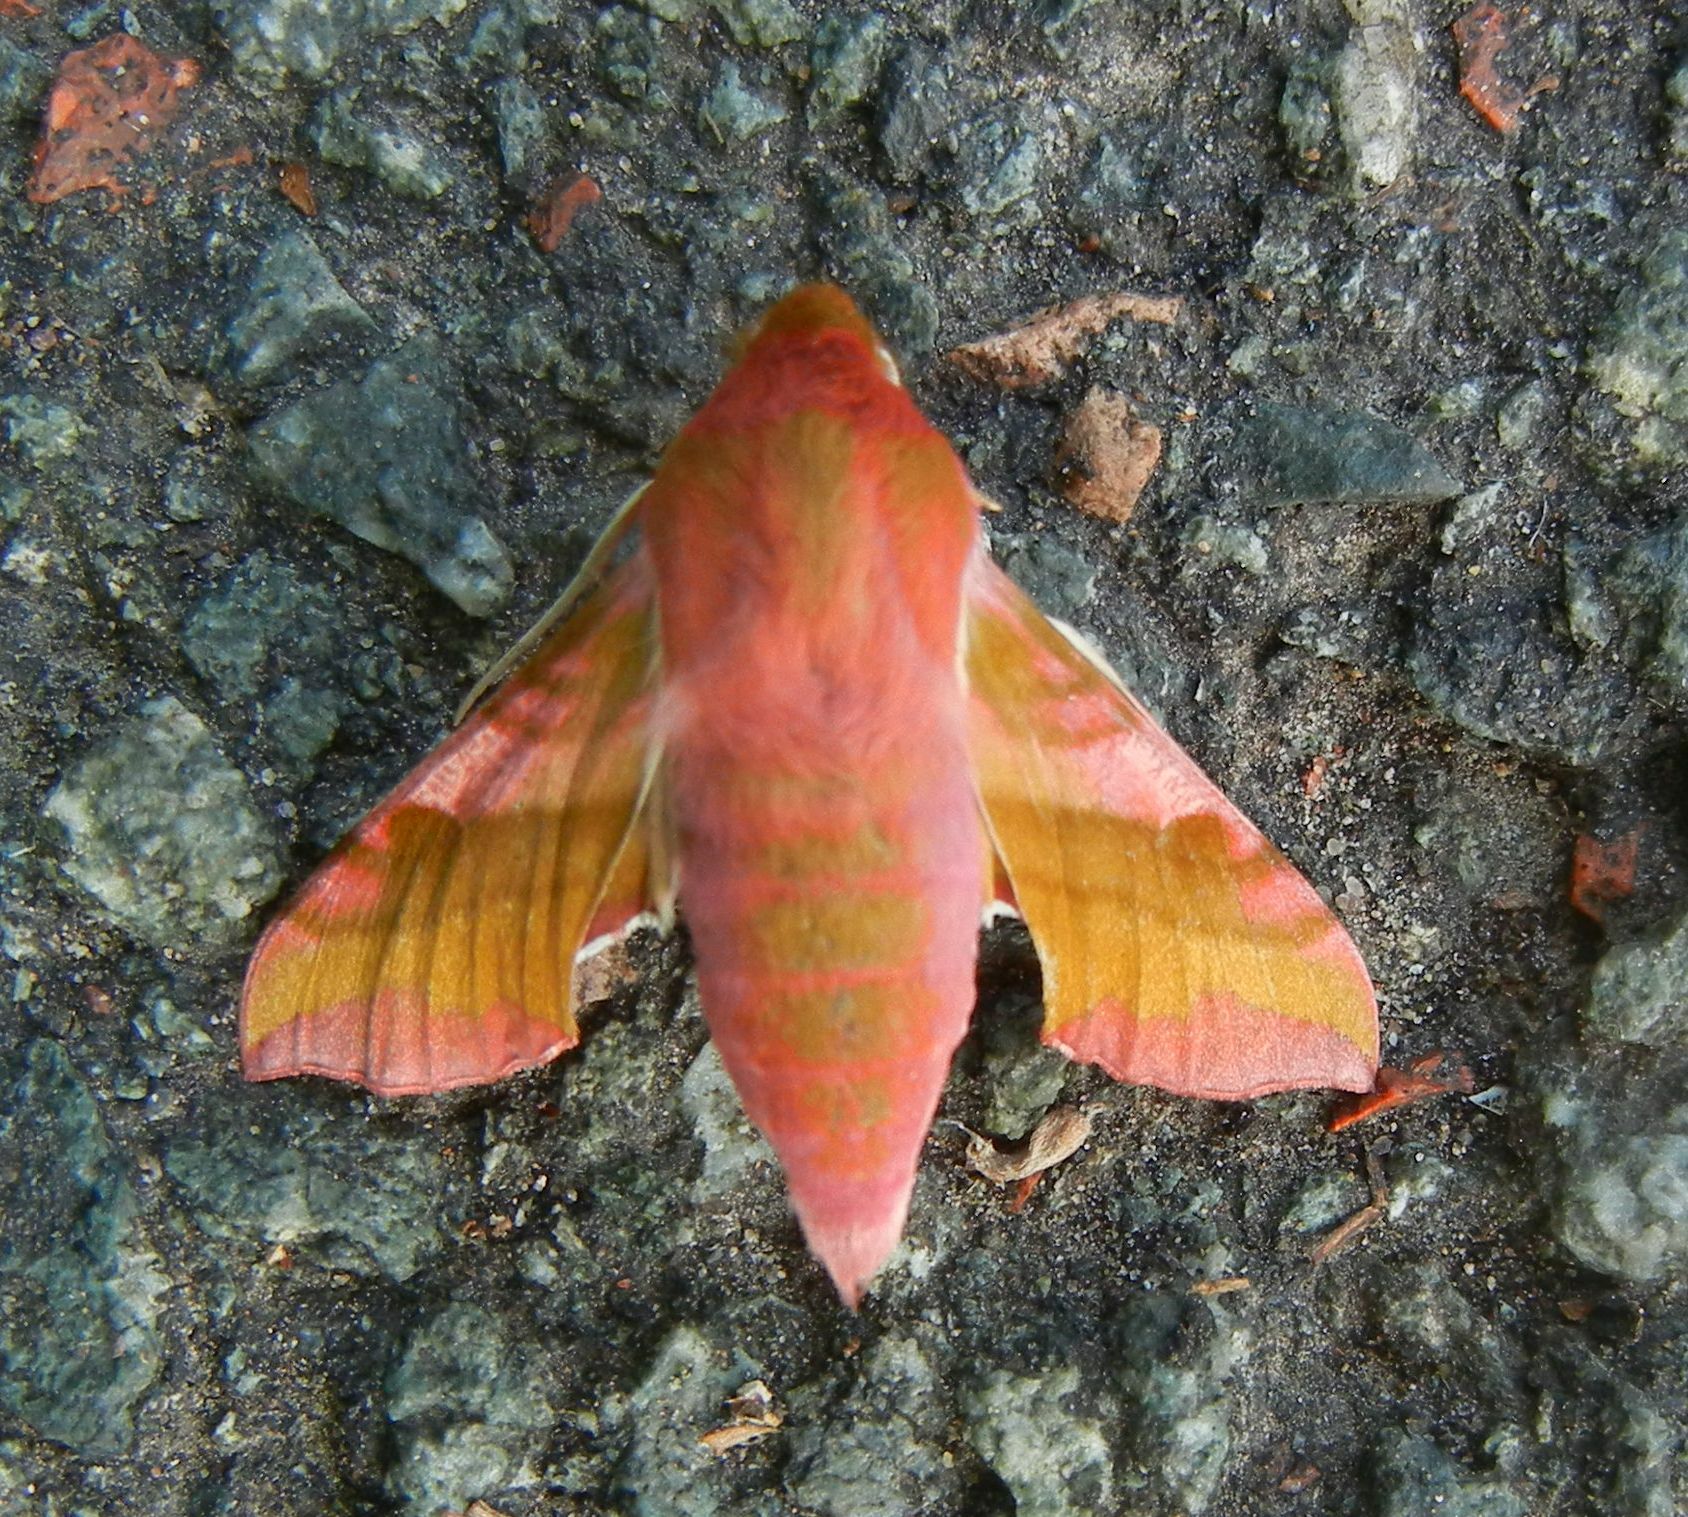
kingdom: Animalia
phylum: Arthropoda
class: Insecta
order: Lepidoptera
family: Sphingidae
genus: Deilephila
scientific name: Deilephila porcellus
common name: Small elephant hawk-moth
